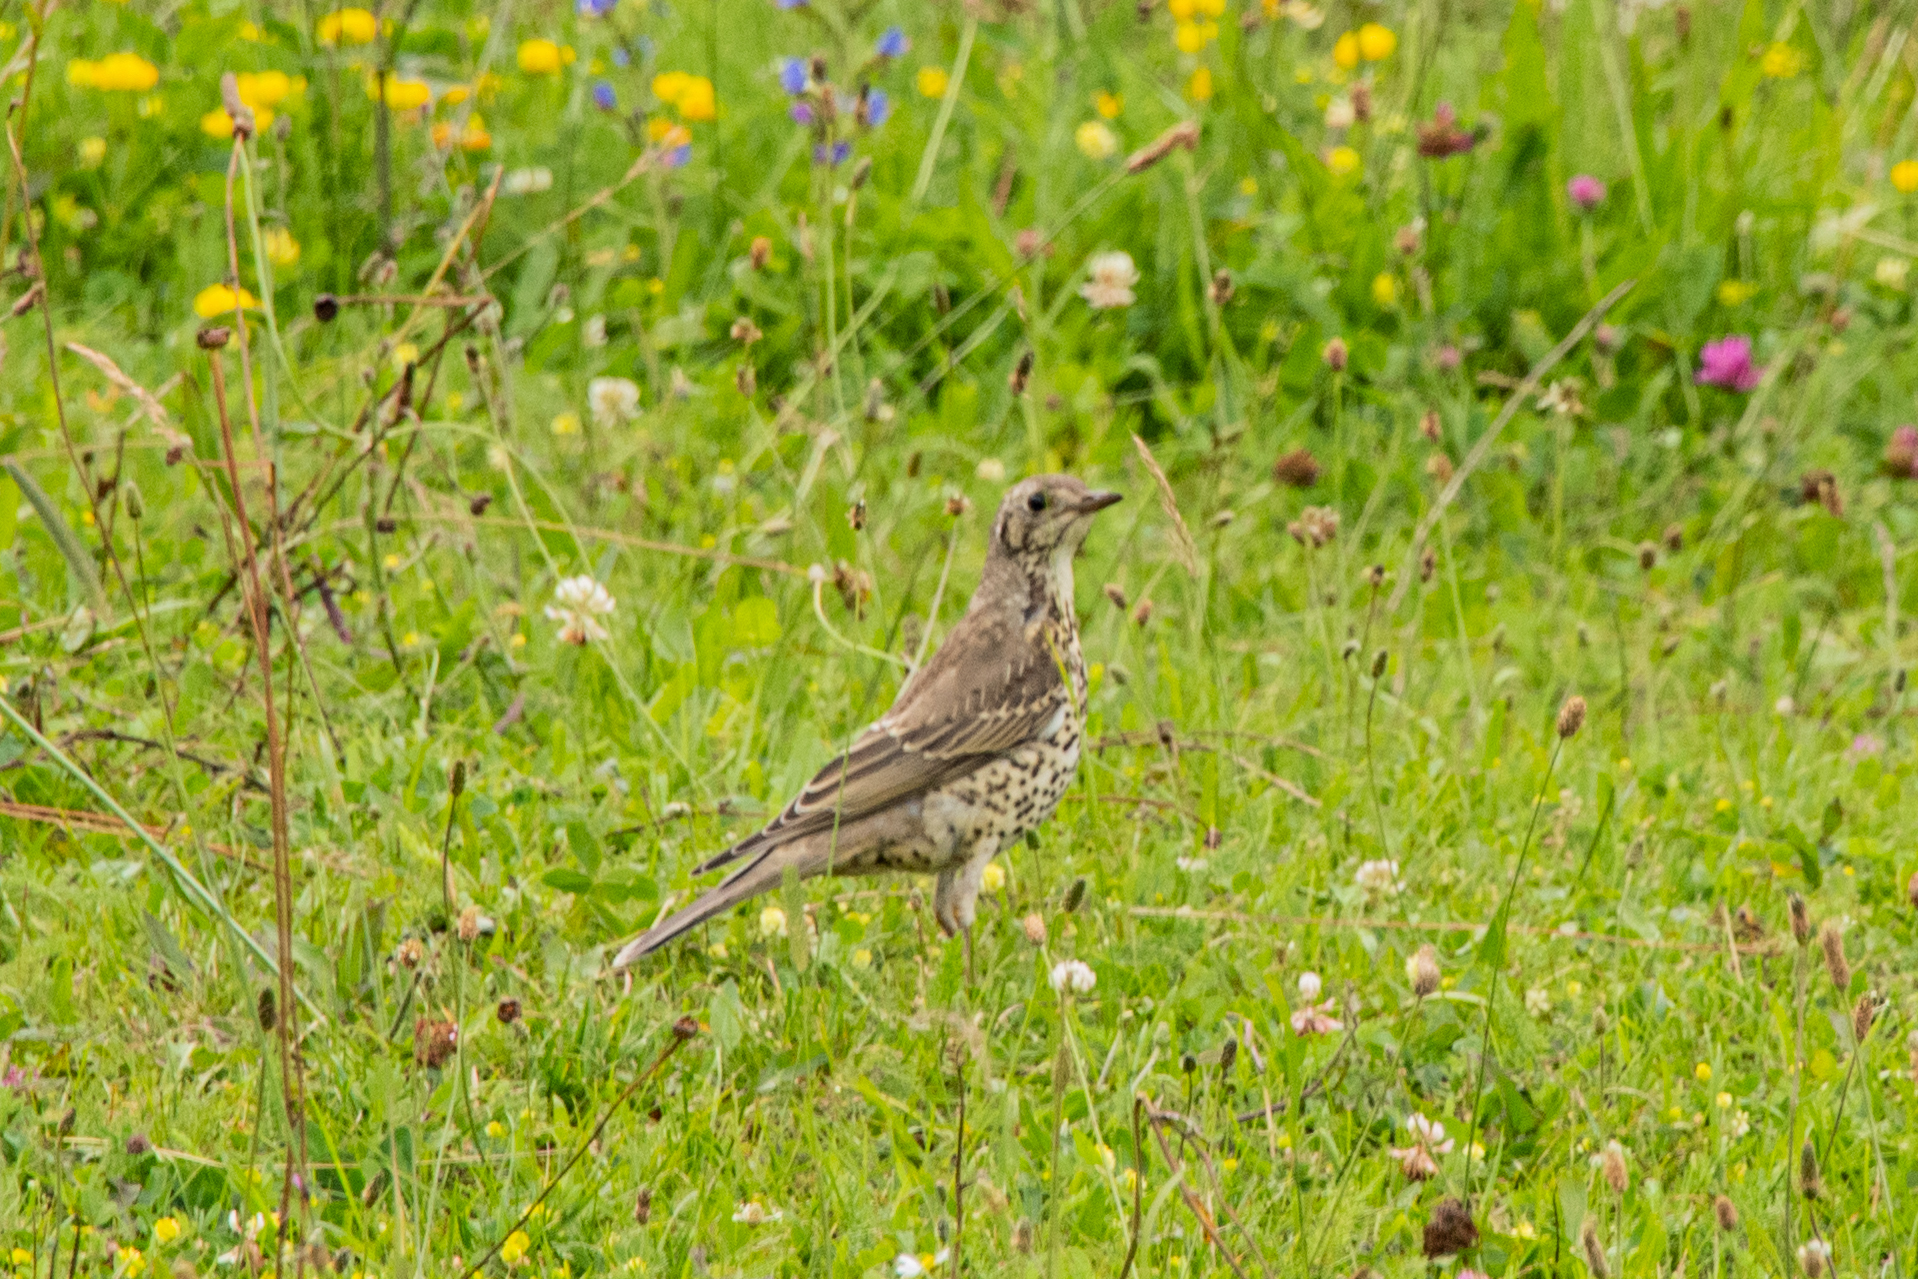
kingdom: Animalia
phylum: Chordata
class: Aves
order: Passeriformes
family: Turdidae
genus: Turdus
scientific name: Turdus viscivorus
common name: Mistle thrush
